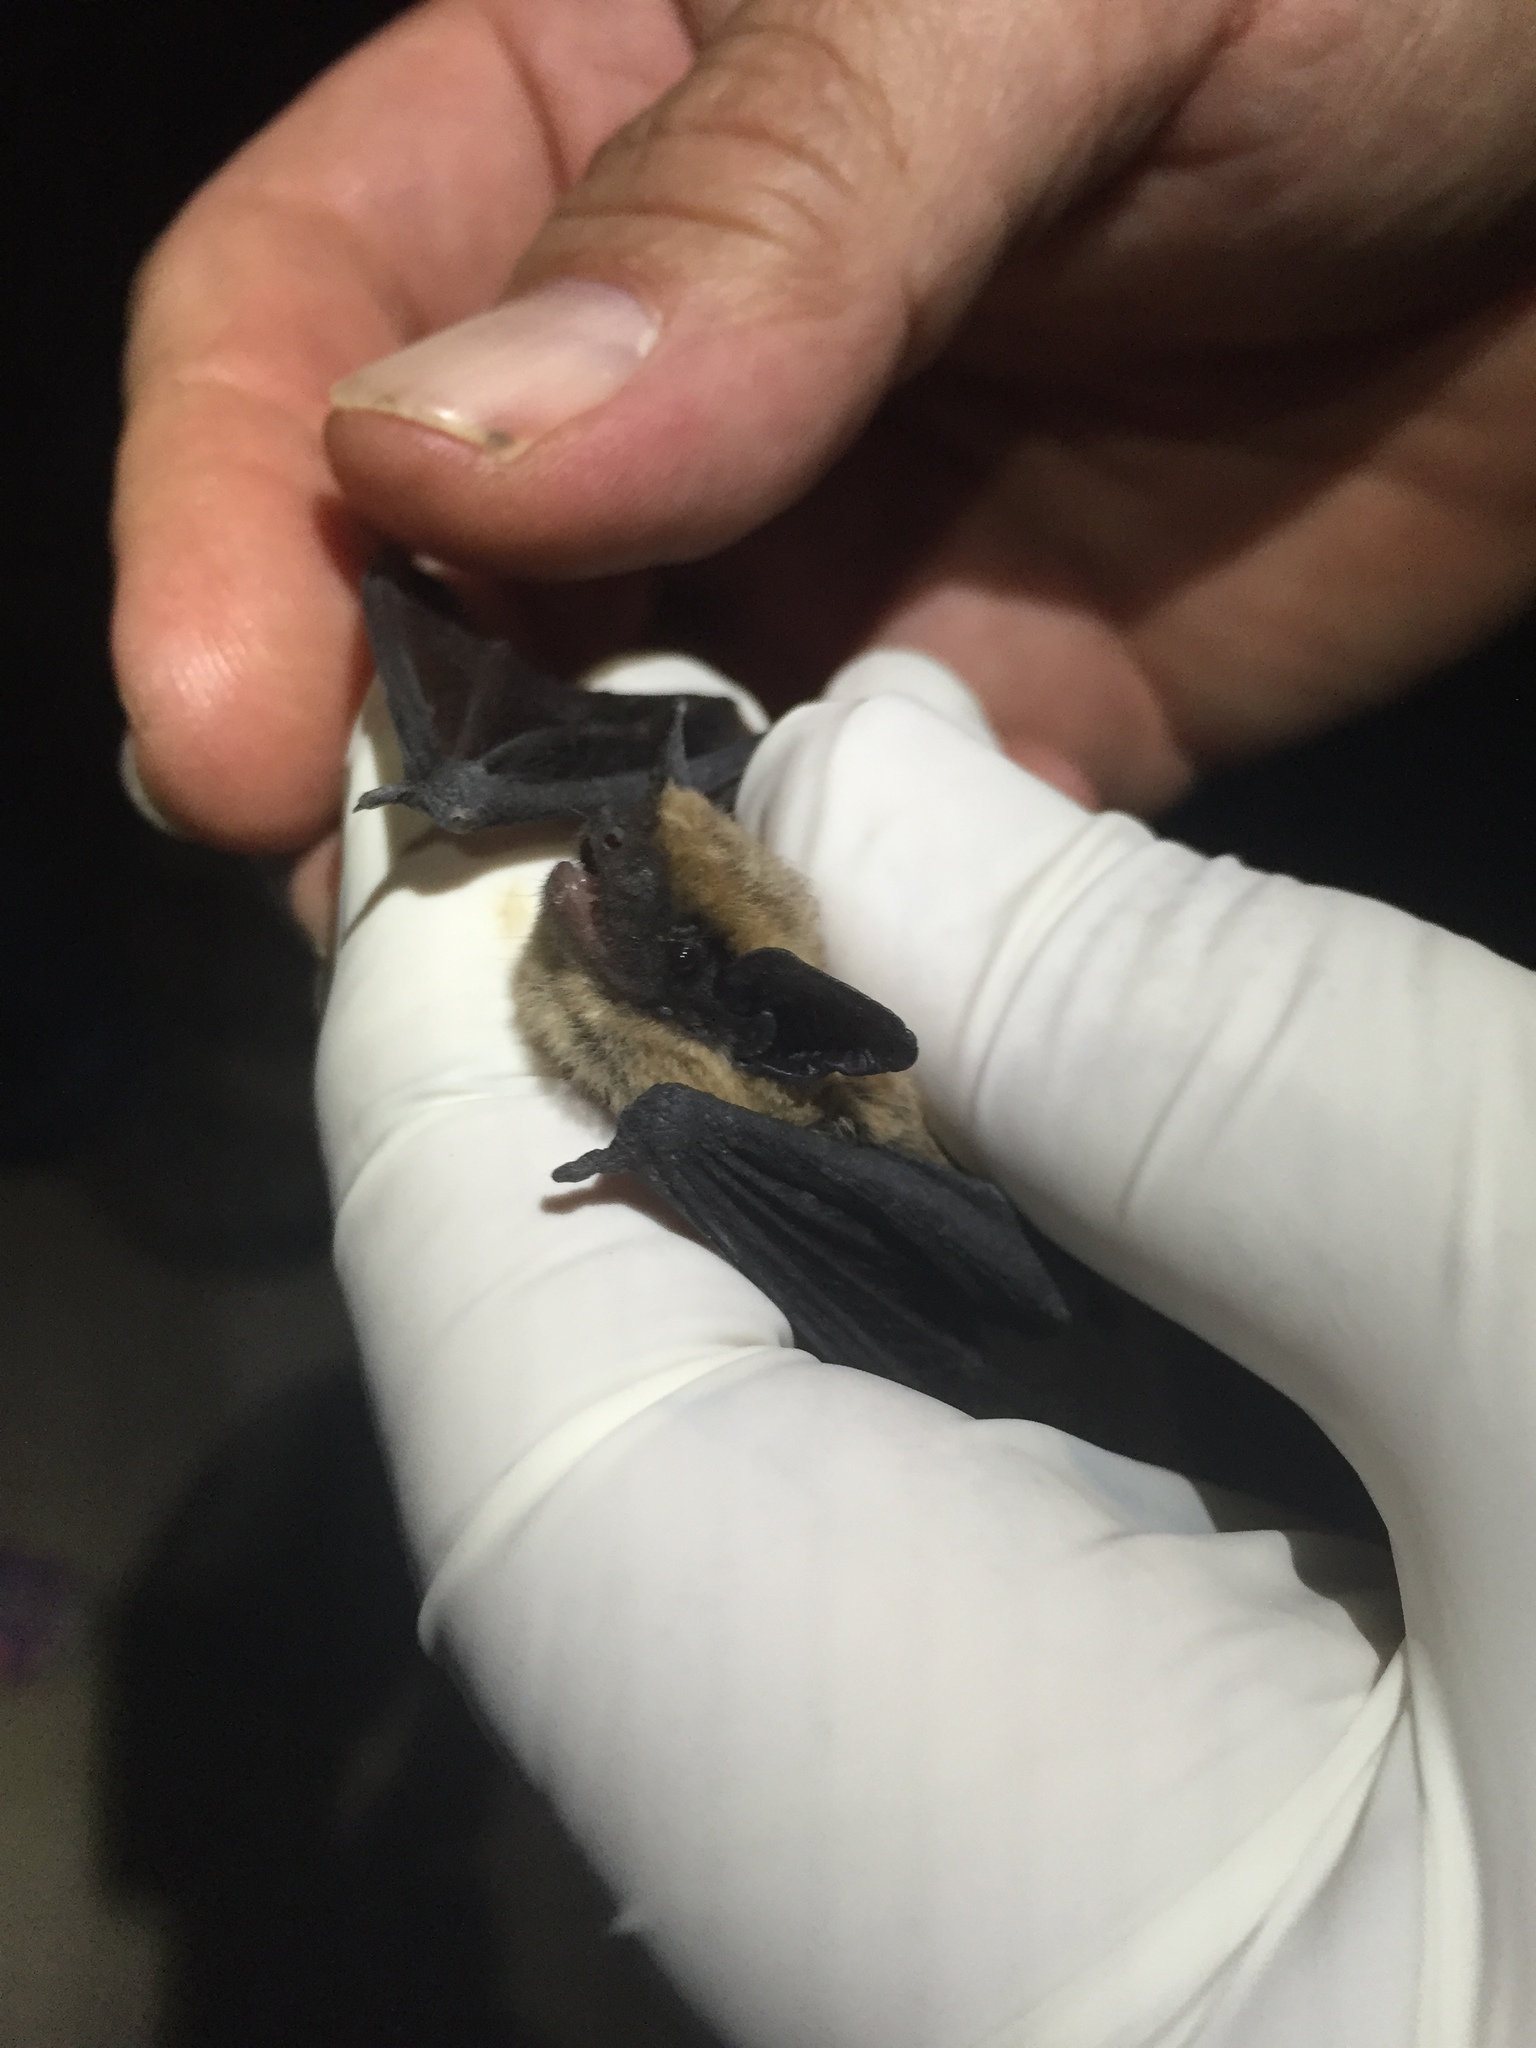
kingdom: Animalia
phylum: Chordata
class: Mammalia
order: Chiroptera
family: Vespertilionidae
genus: Parastrellus
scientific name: Parastrellus hesperus
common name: Canyon bat
